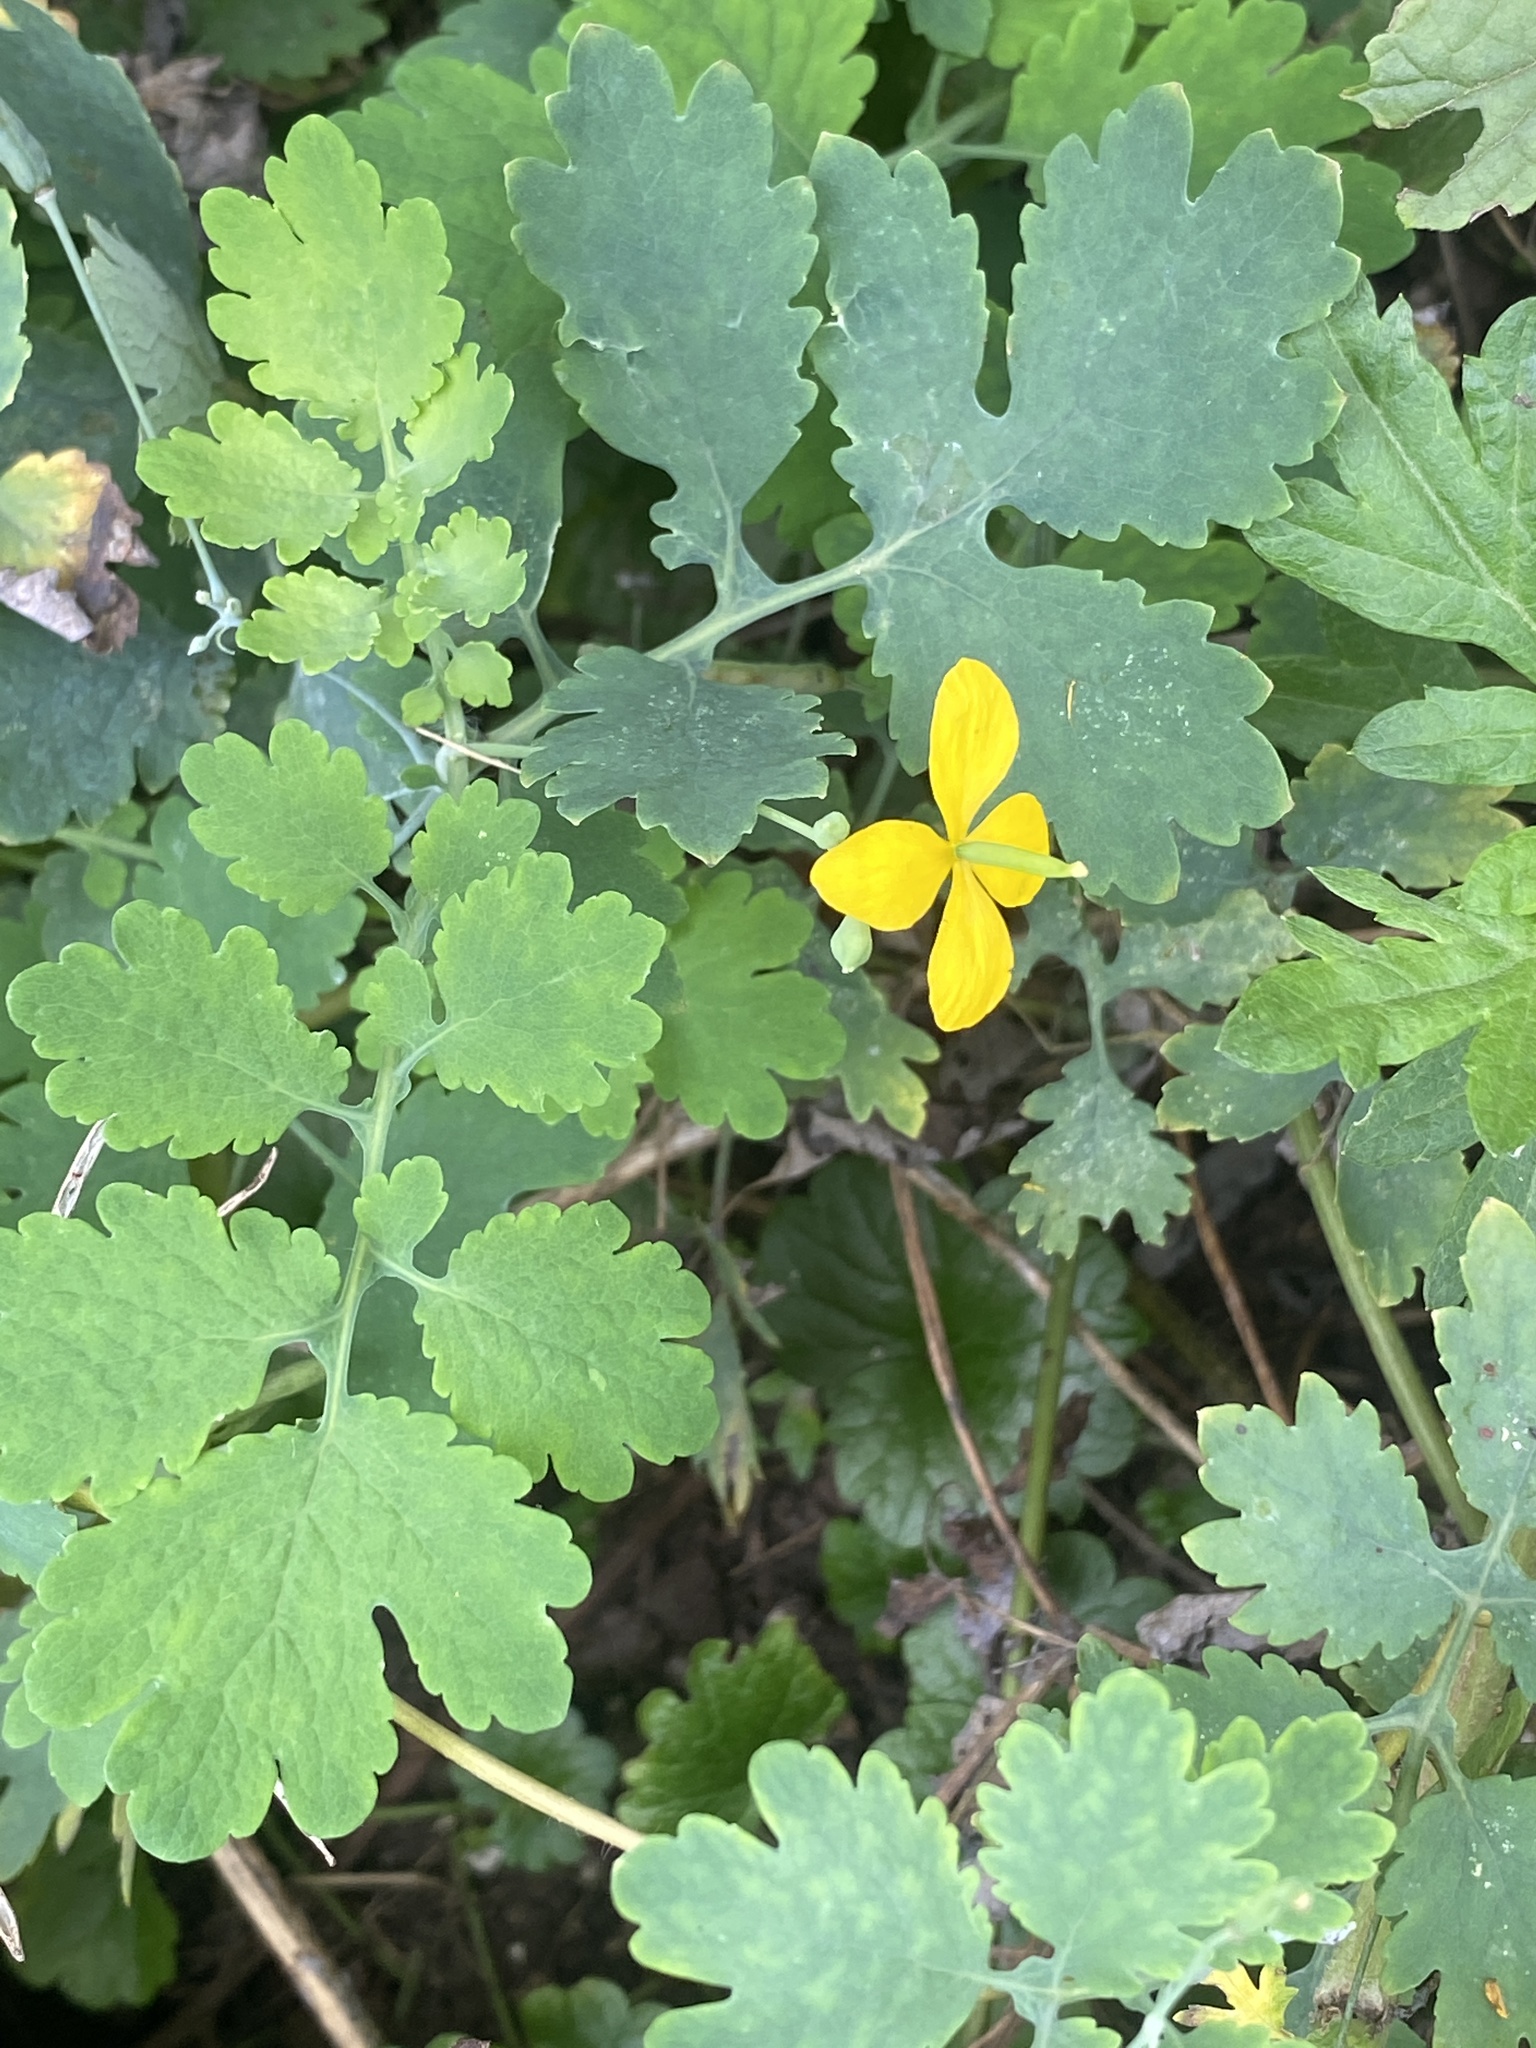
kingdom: Plantae
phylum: Tracheophyta
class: Magnoliopsida
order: Ranunculales
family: Papaveraceae
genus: Chelidonium
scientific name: Chelidonium majus
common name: Greater celandine
